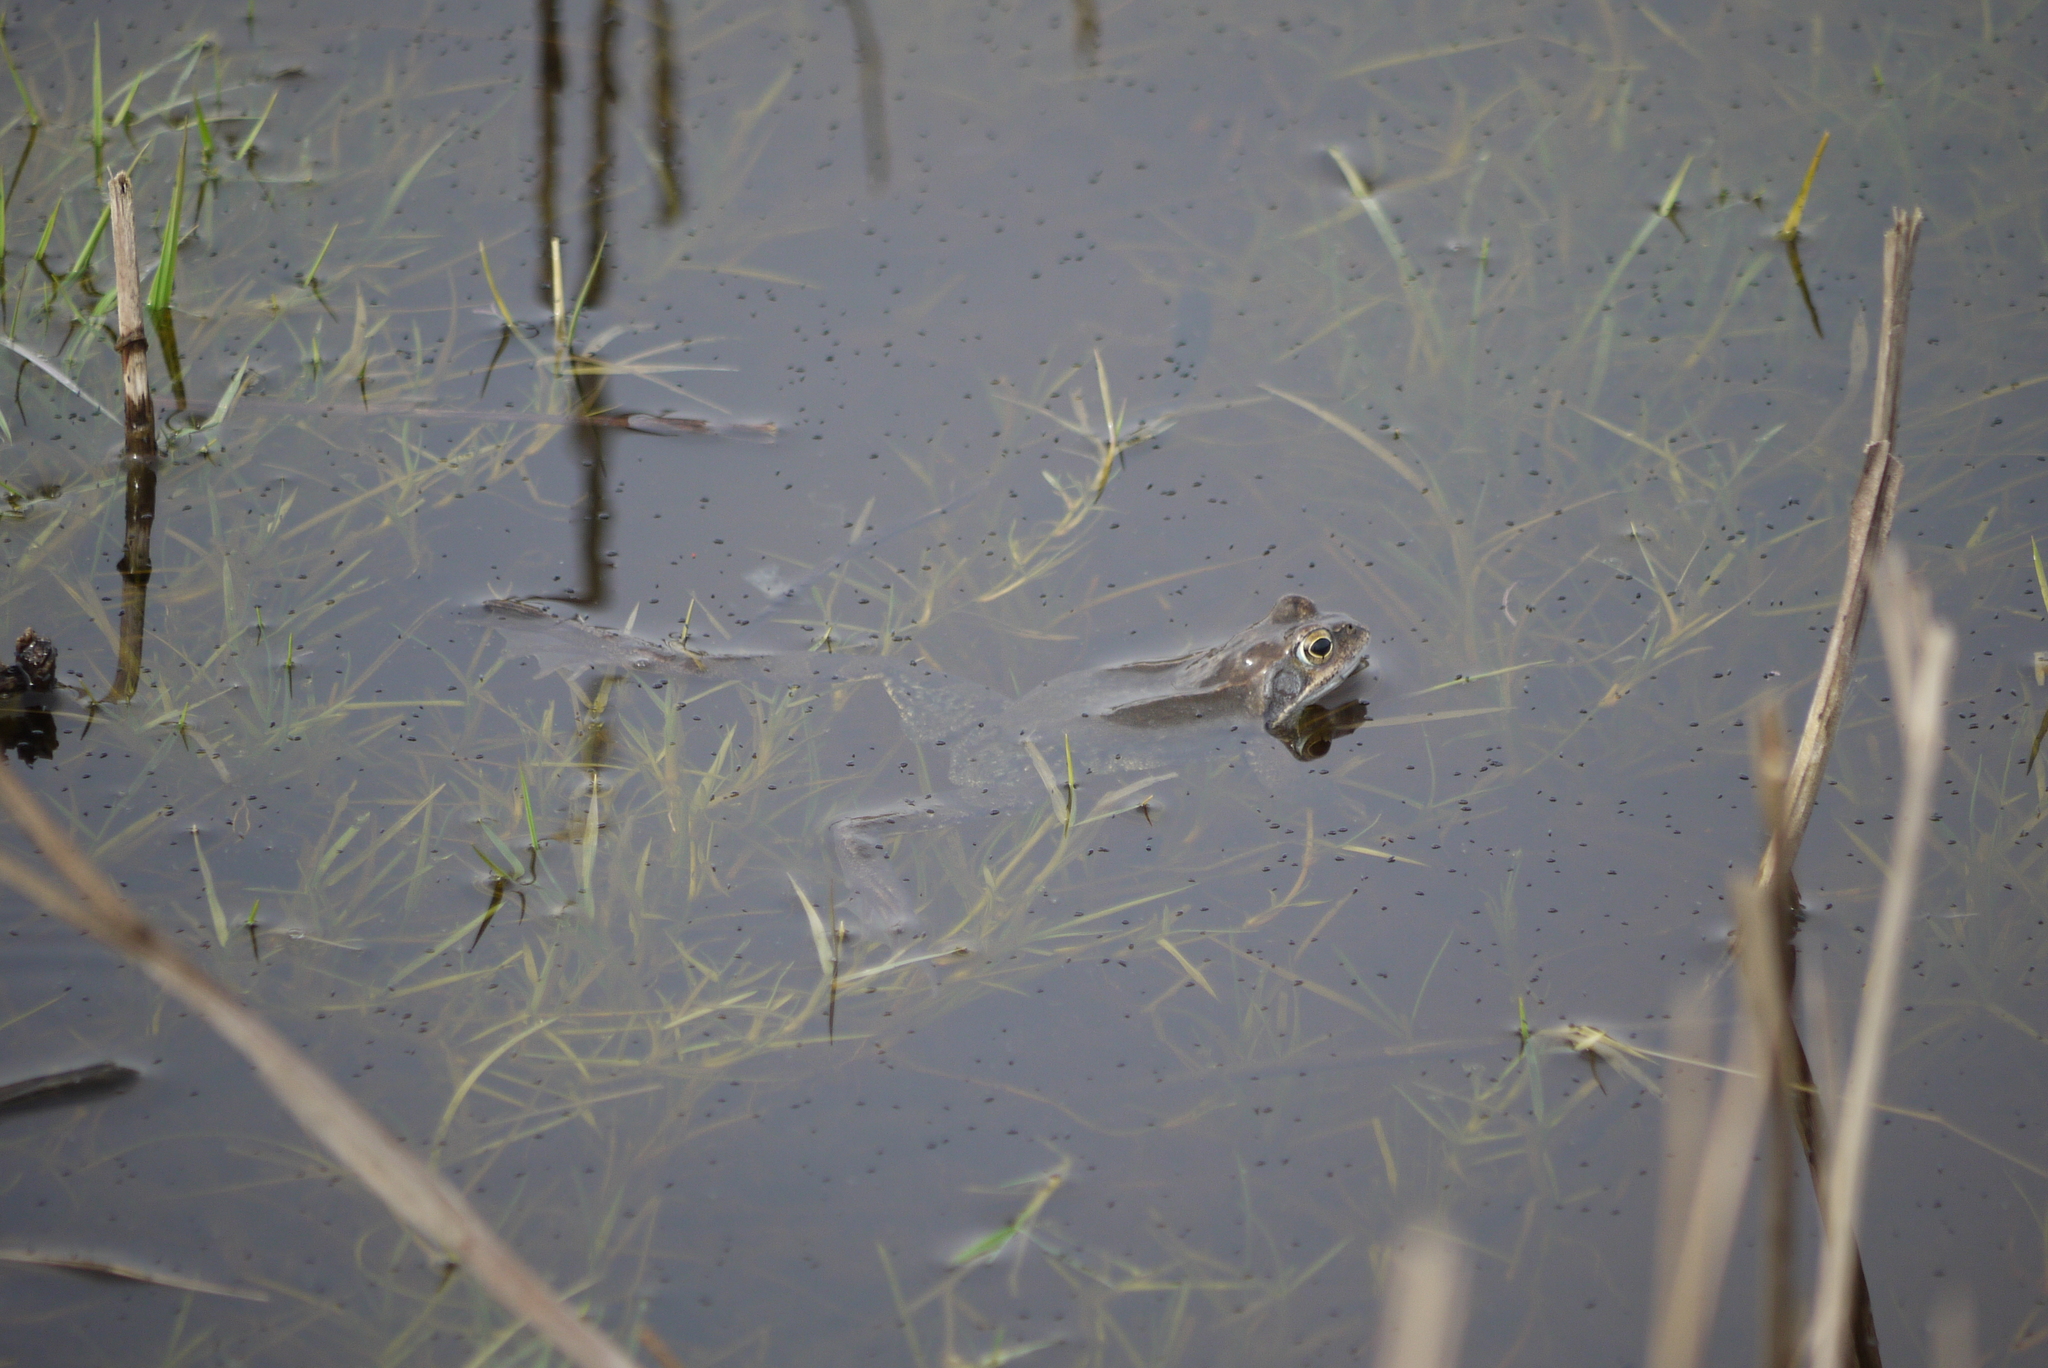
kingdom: Animalia
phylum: Chordata
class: Amphibia
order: Anura
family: Ranidae
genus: Rana
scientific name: Rana temporaria
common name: Common frog
